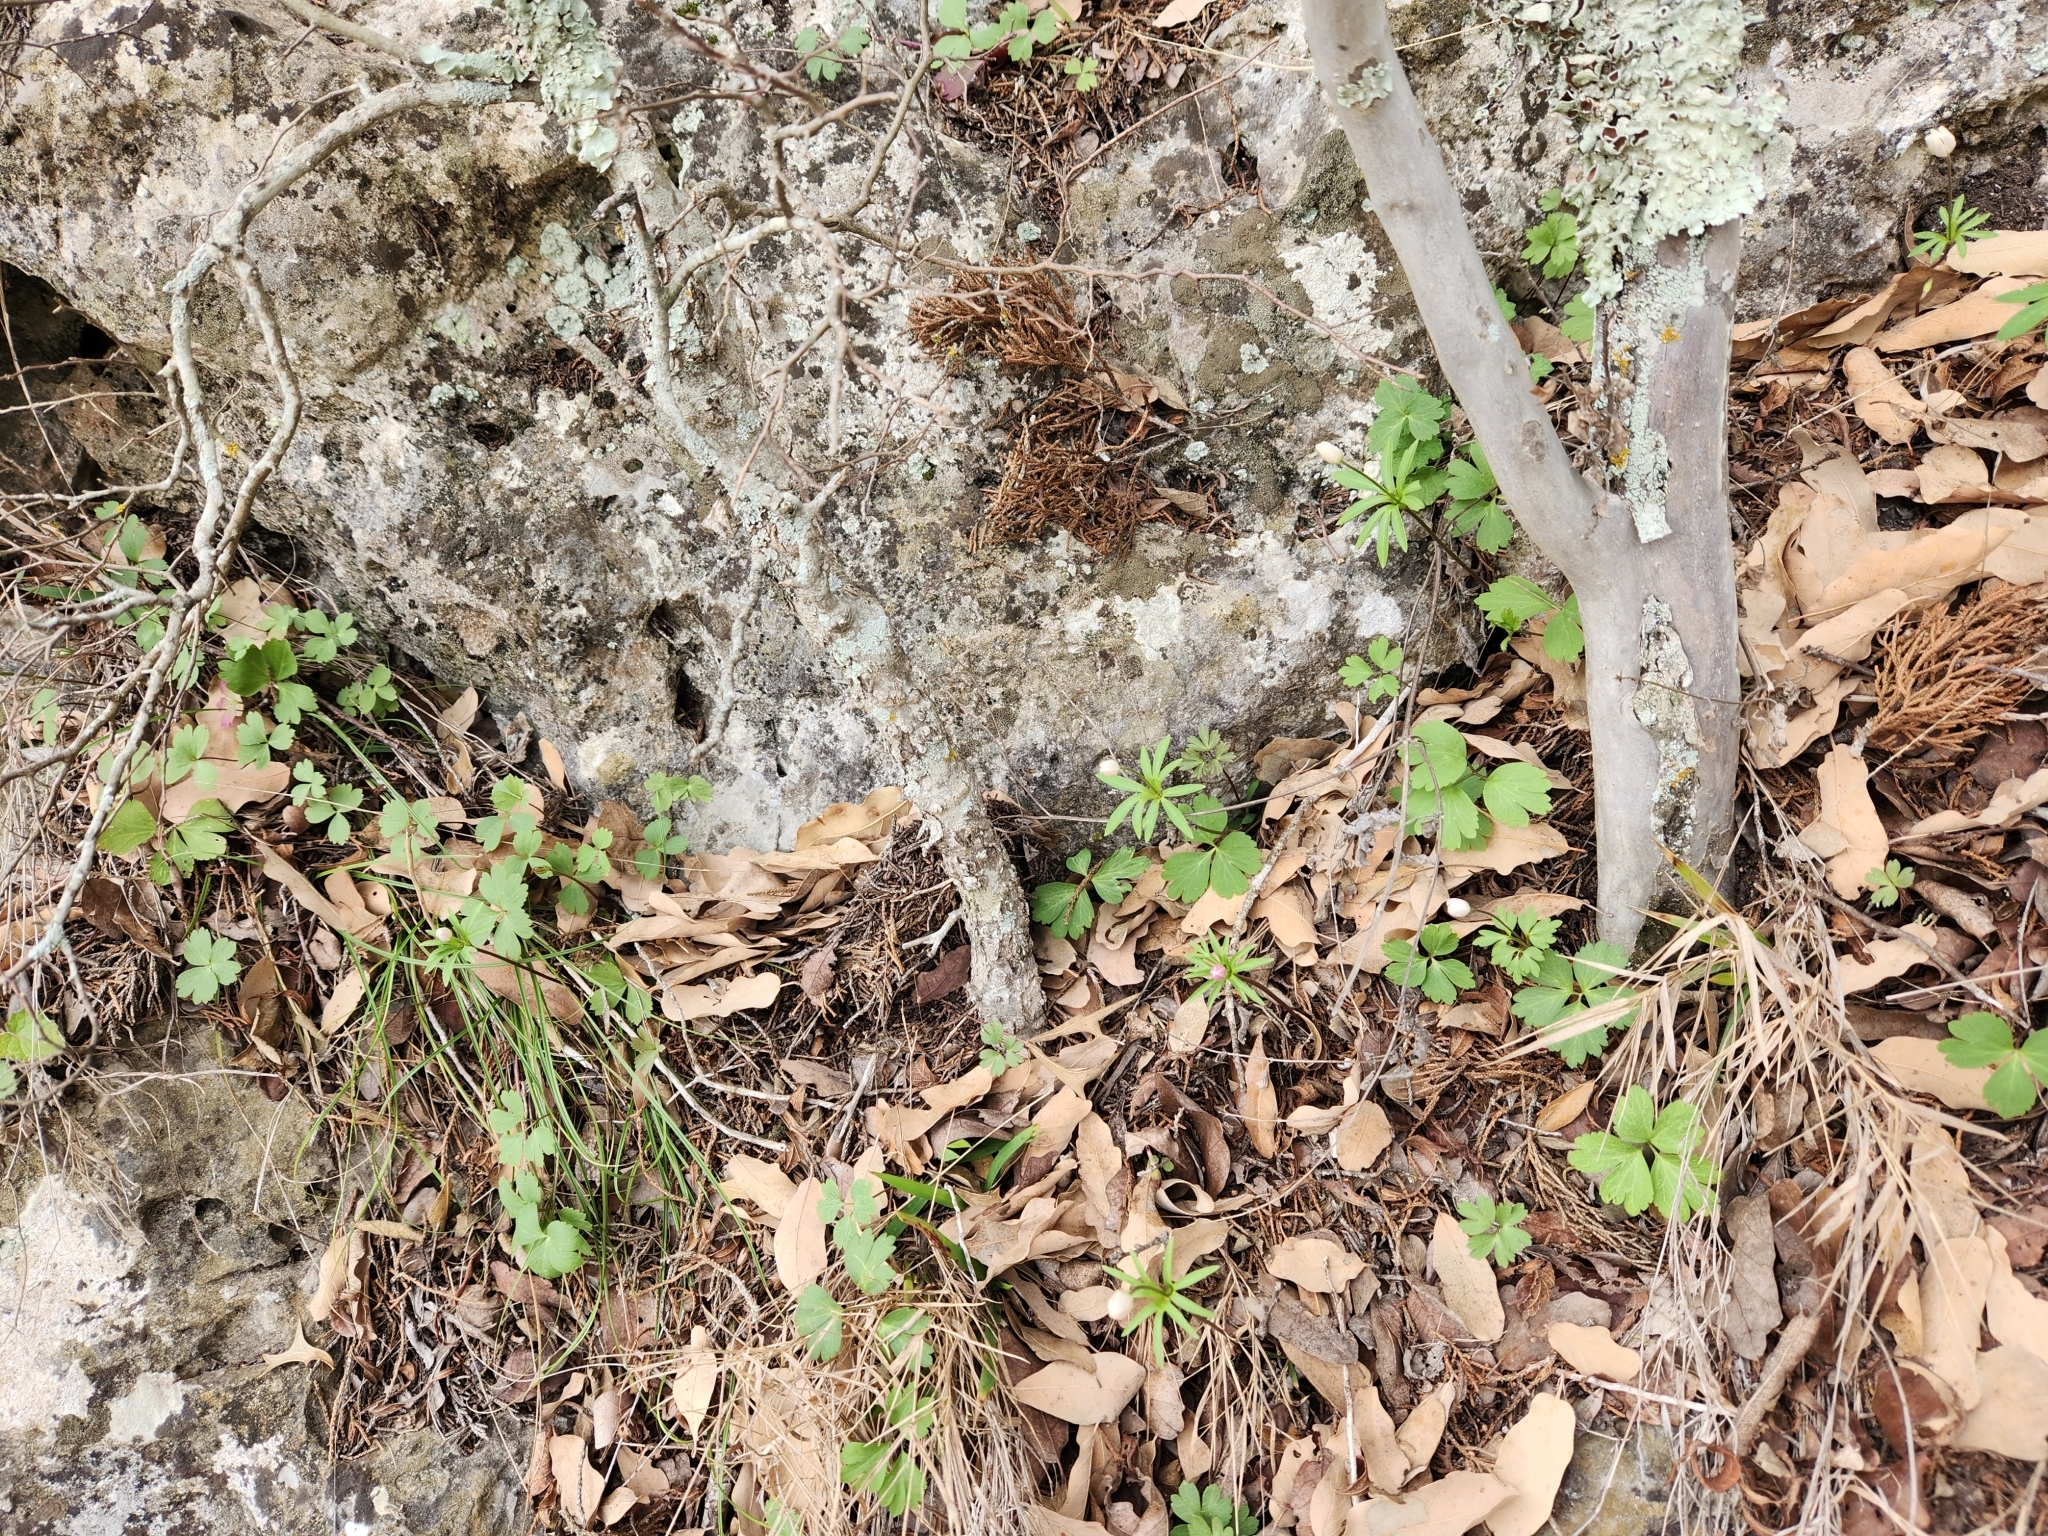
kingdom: Plantae
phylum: Tracheophyta
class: Magnoliopsida
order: Ranunculales
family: Ranunculaceae
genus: Anemone
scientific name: Anemone edwardsiana
